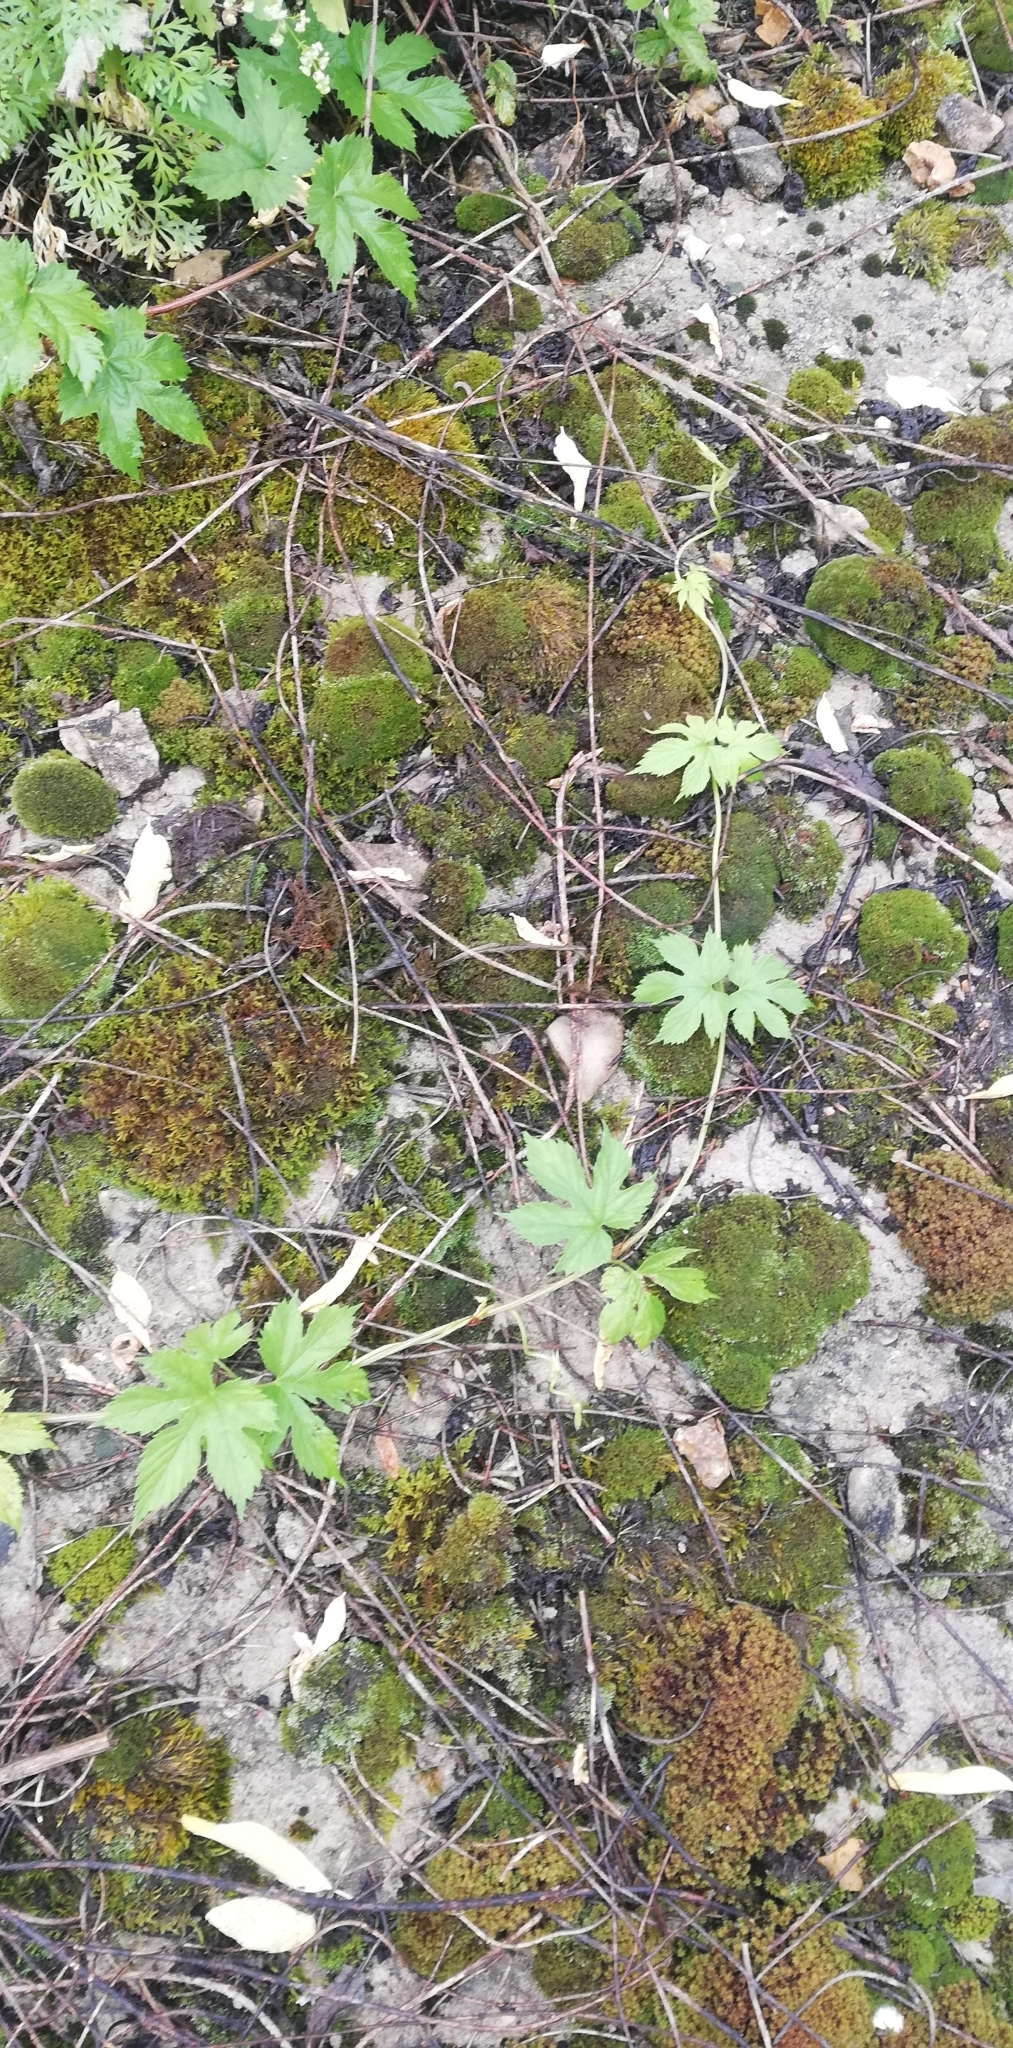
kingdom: Plantae
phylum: Tracheophyta
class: Magnoliopsida
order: Rosales
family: Cannabaceae
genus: Humulus
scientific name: Humulus lupulus
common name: Hop
